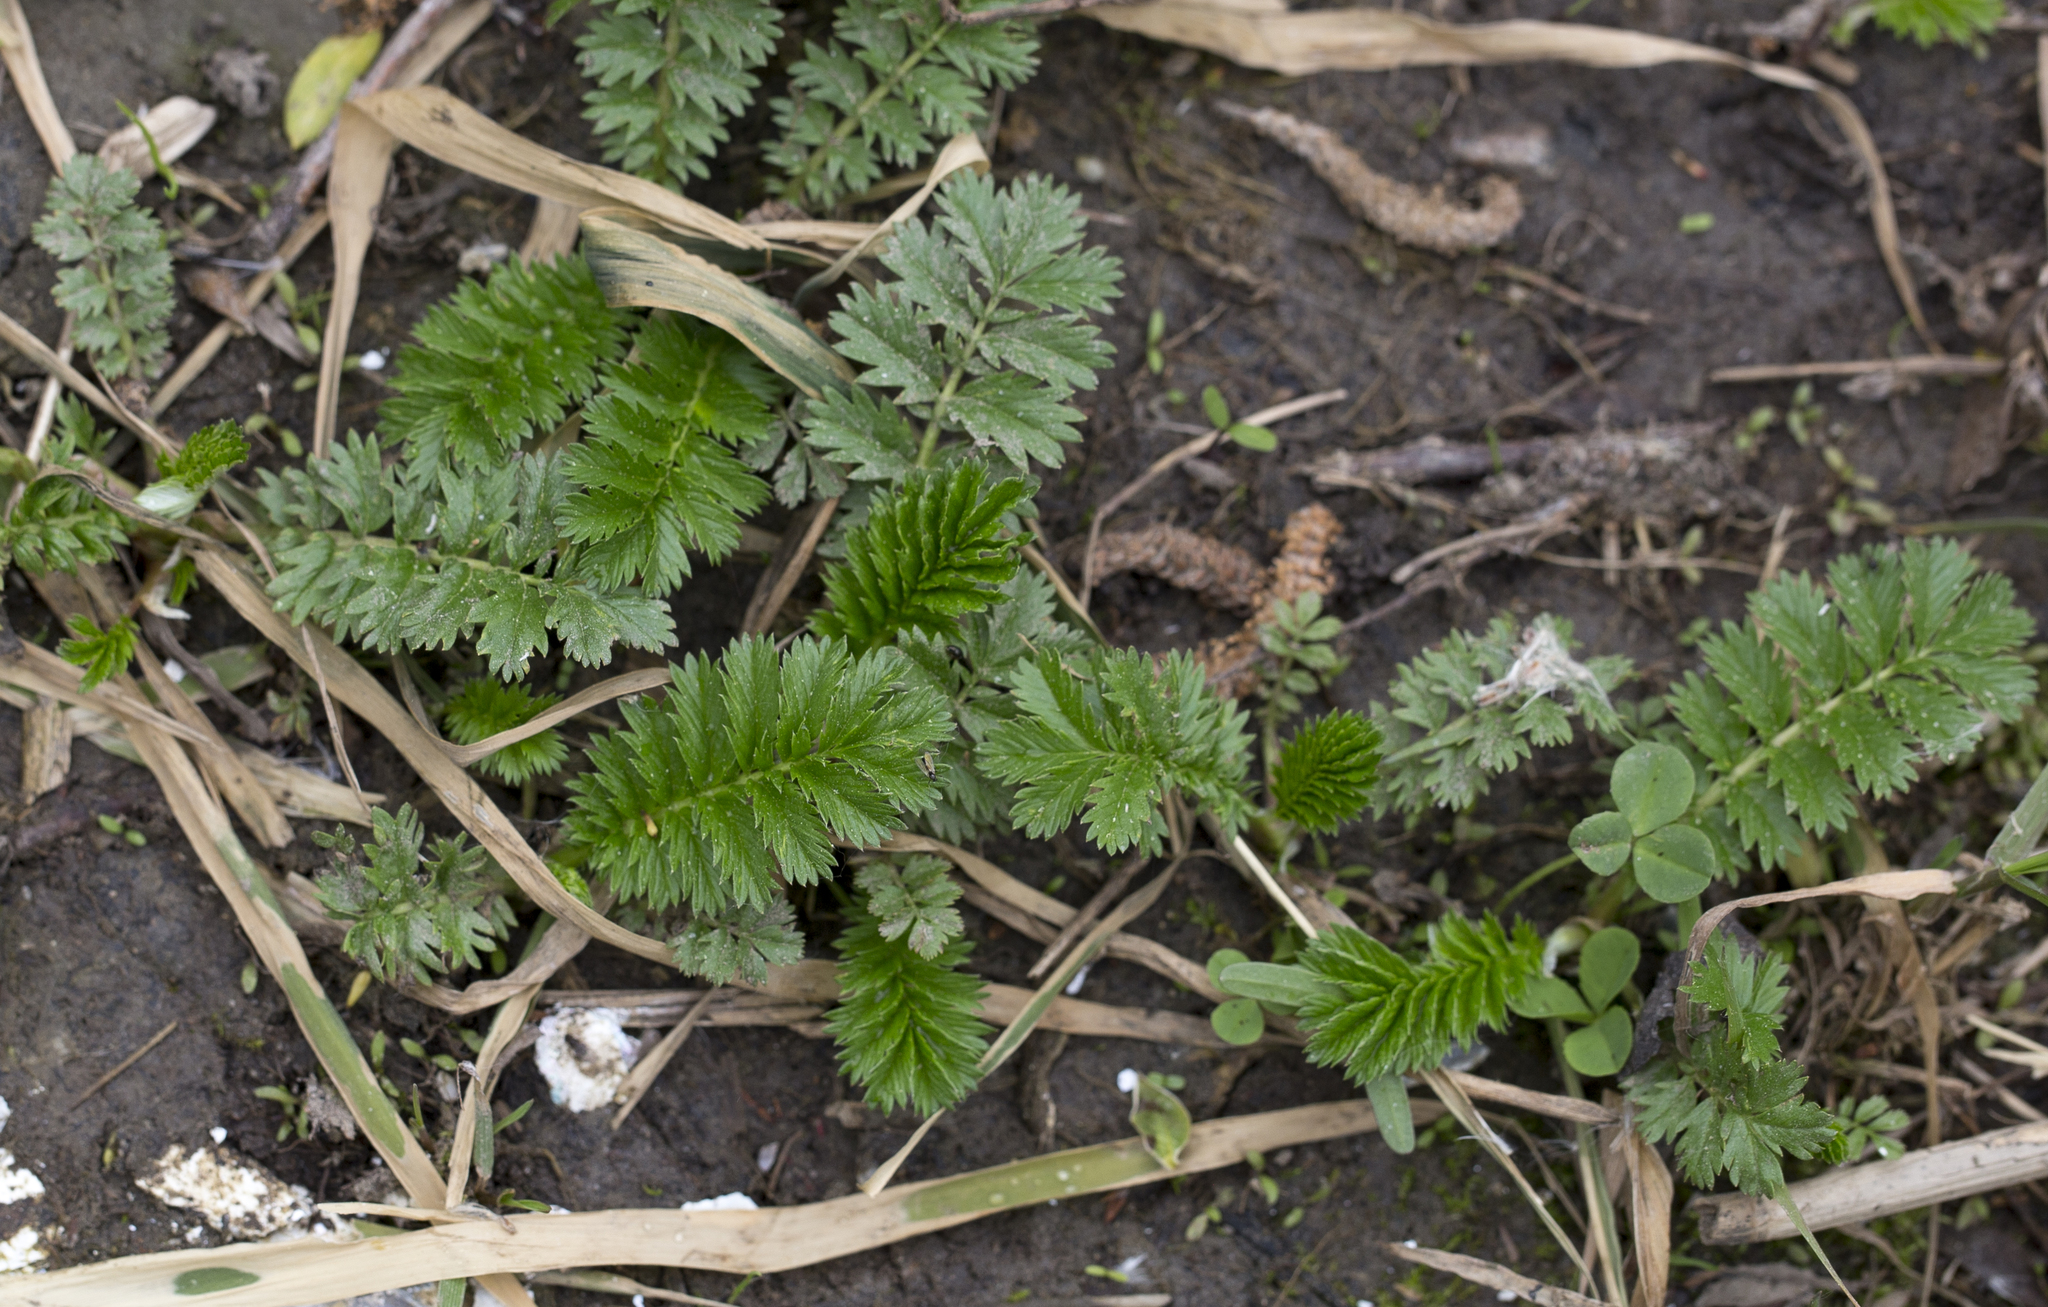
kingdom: Plantae
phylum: Tracheophyta
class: Magnoliopsida
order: Rosales
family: Rosaceae
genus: Argentina
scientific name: Argentina anserina
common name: Common silverweed
